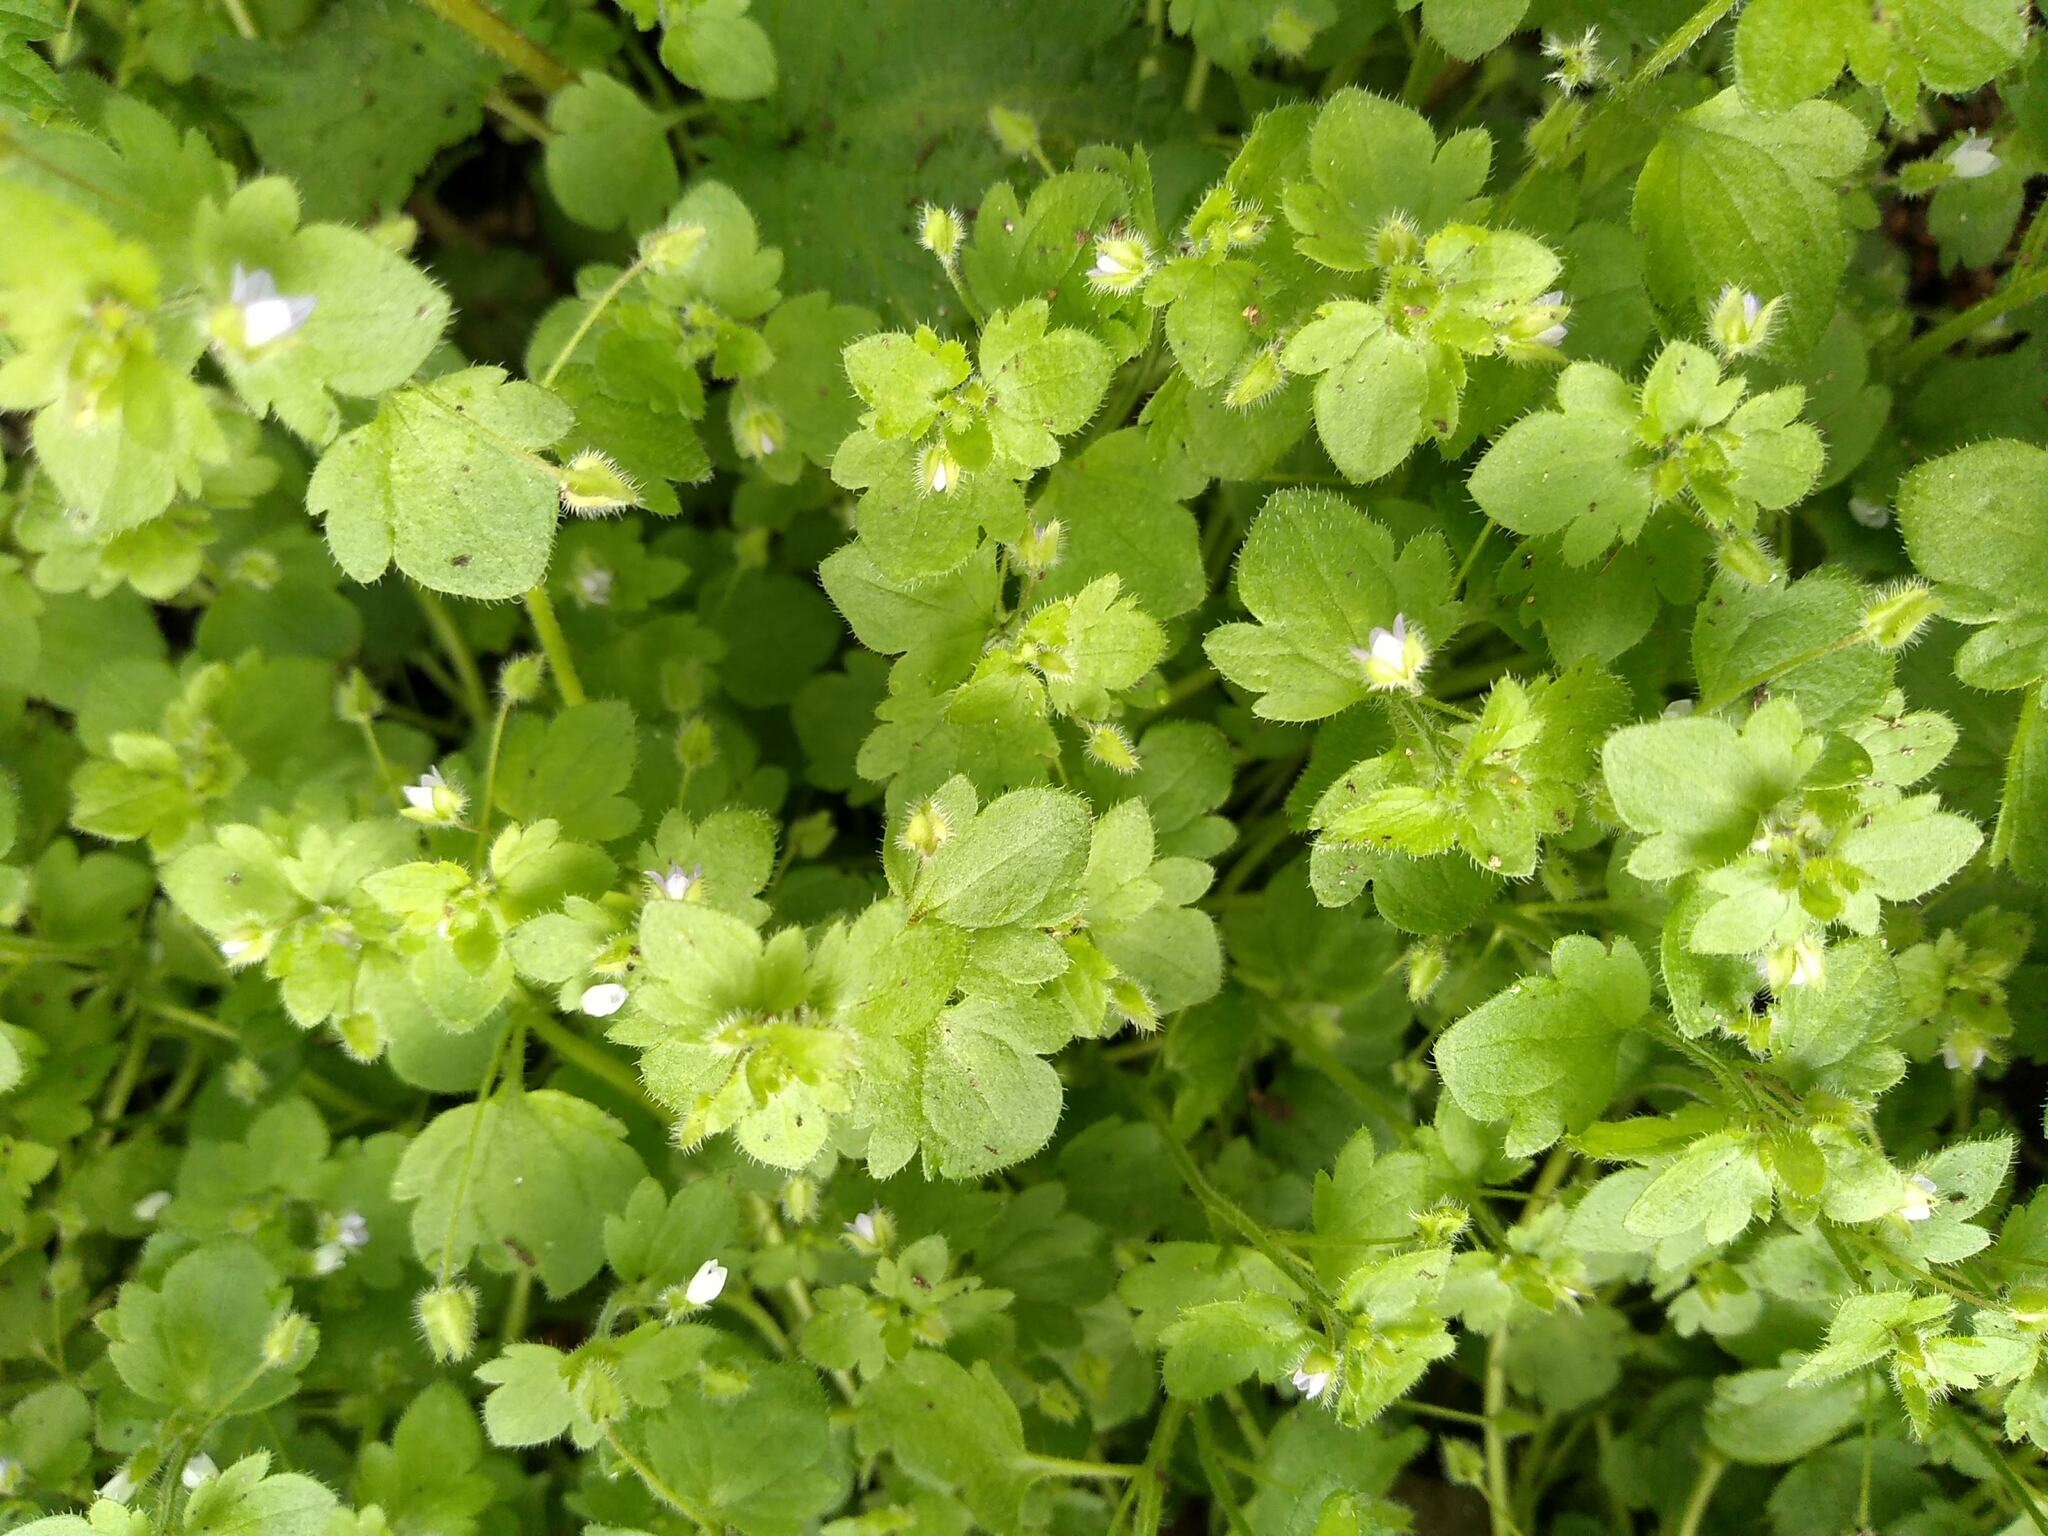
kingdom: Plantae
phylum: Tracheophyta
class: Magnoliopsida
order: Lamiales
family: Plantaginaceae
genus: Veronica
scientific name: Veronica sublobata
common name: False ivy-leaved speedwell
